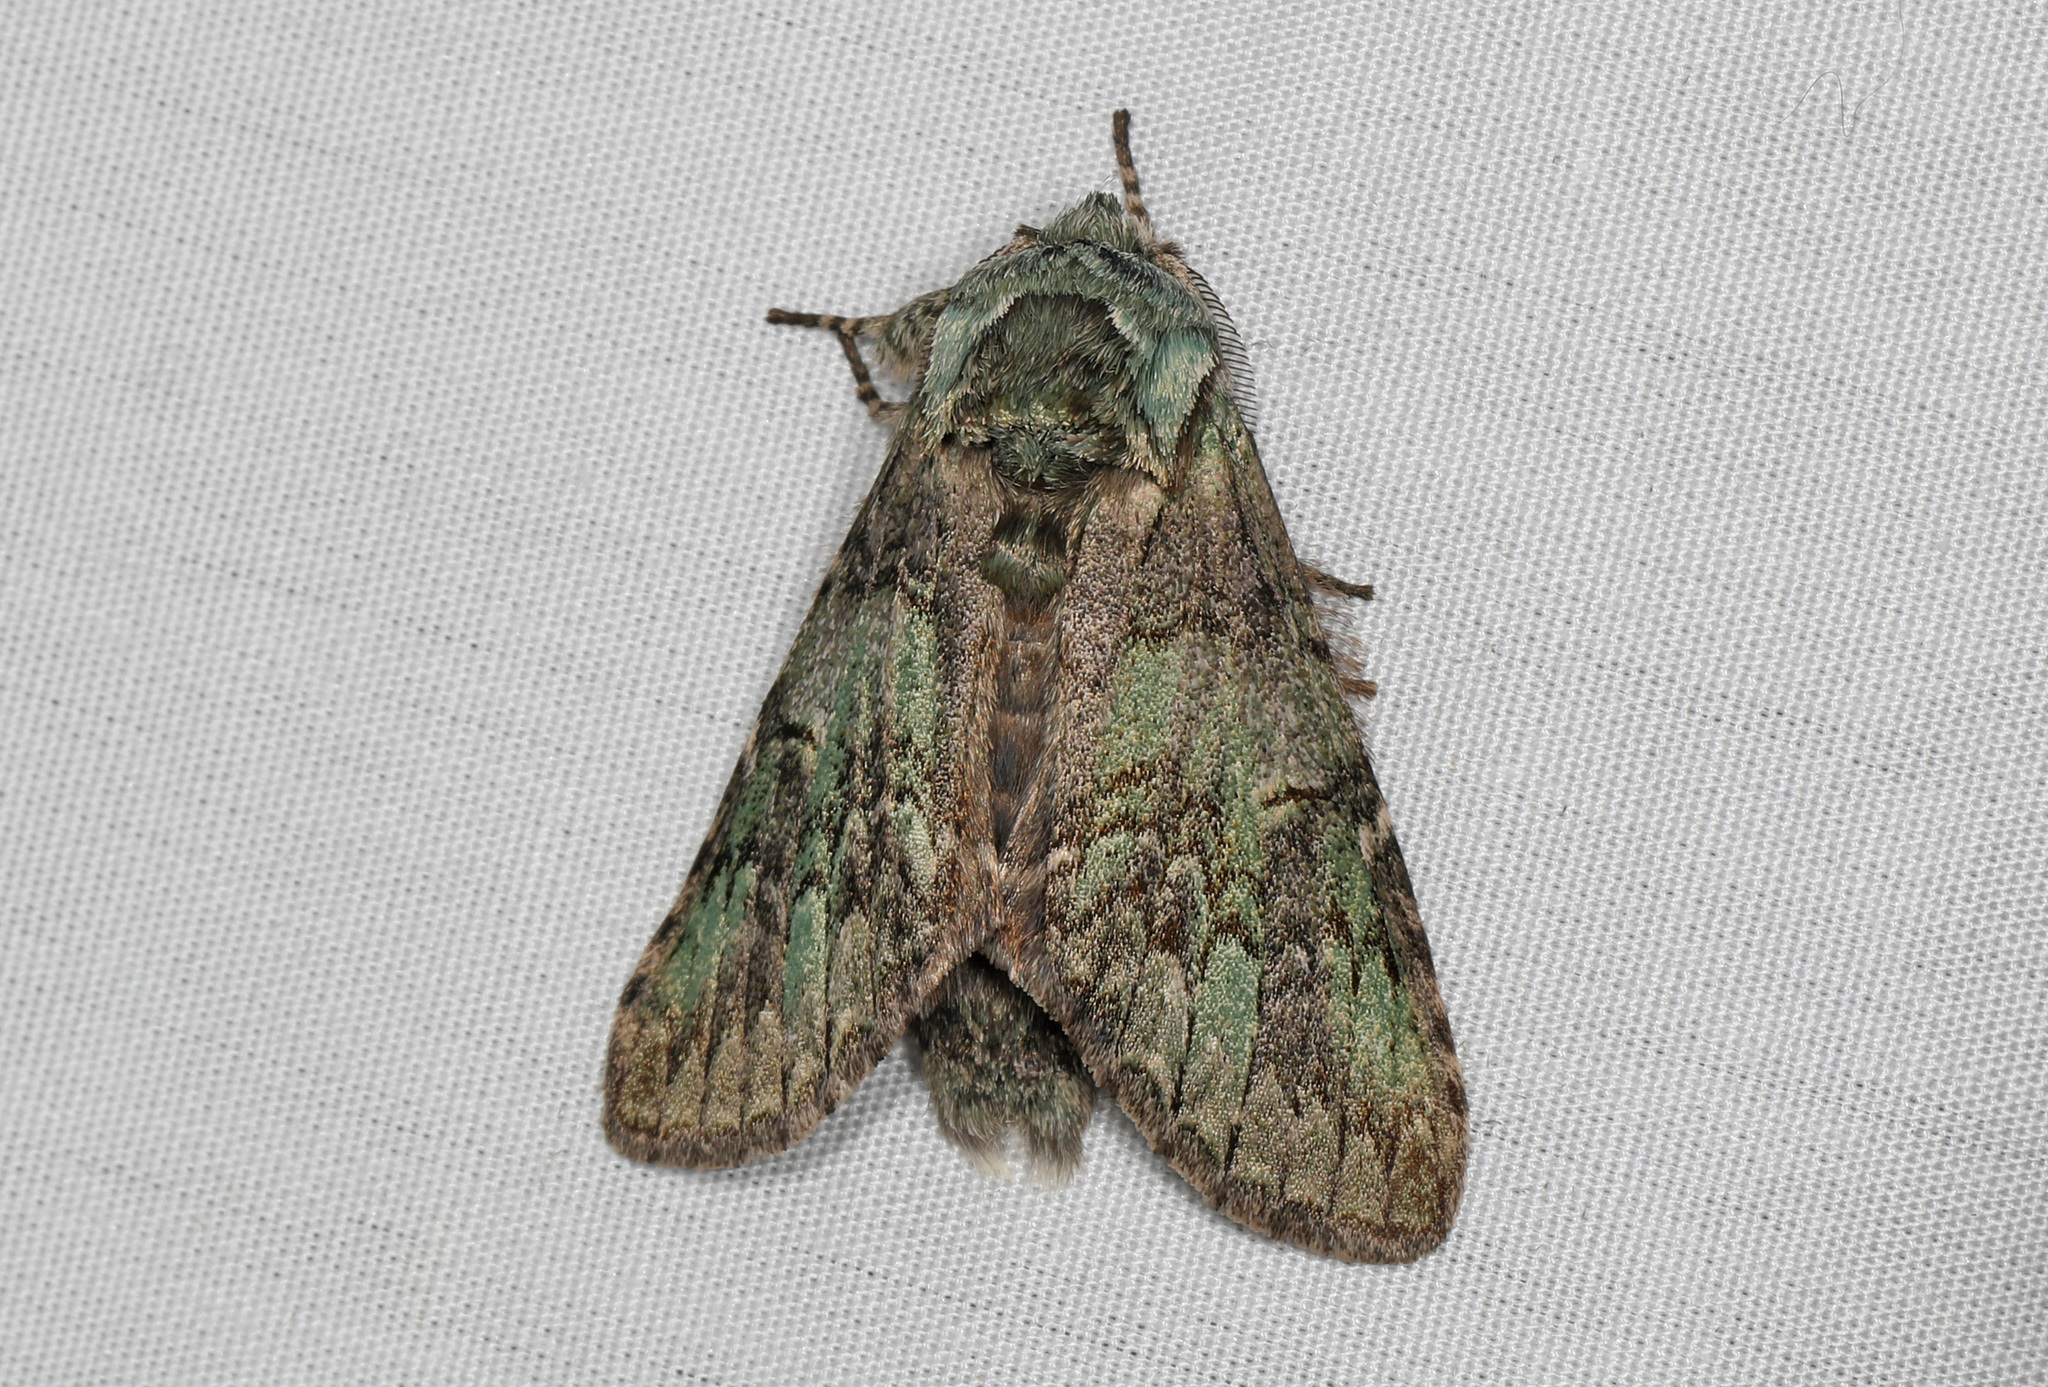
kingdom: Animalia
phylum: Arthropoda
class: Insecta
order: Lepidoptera
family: Notodontidae
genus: Macrurocampa
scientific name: Macrurocampa marthesia
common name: Mottled prominent
